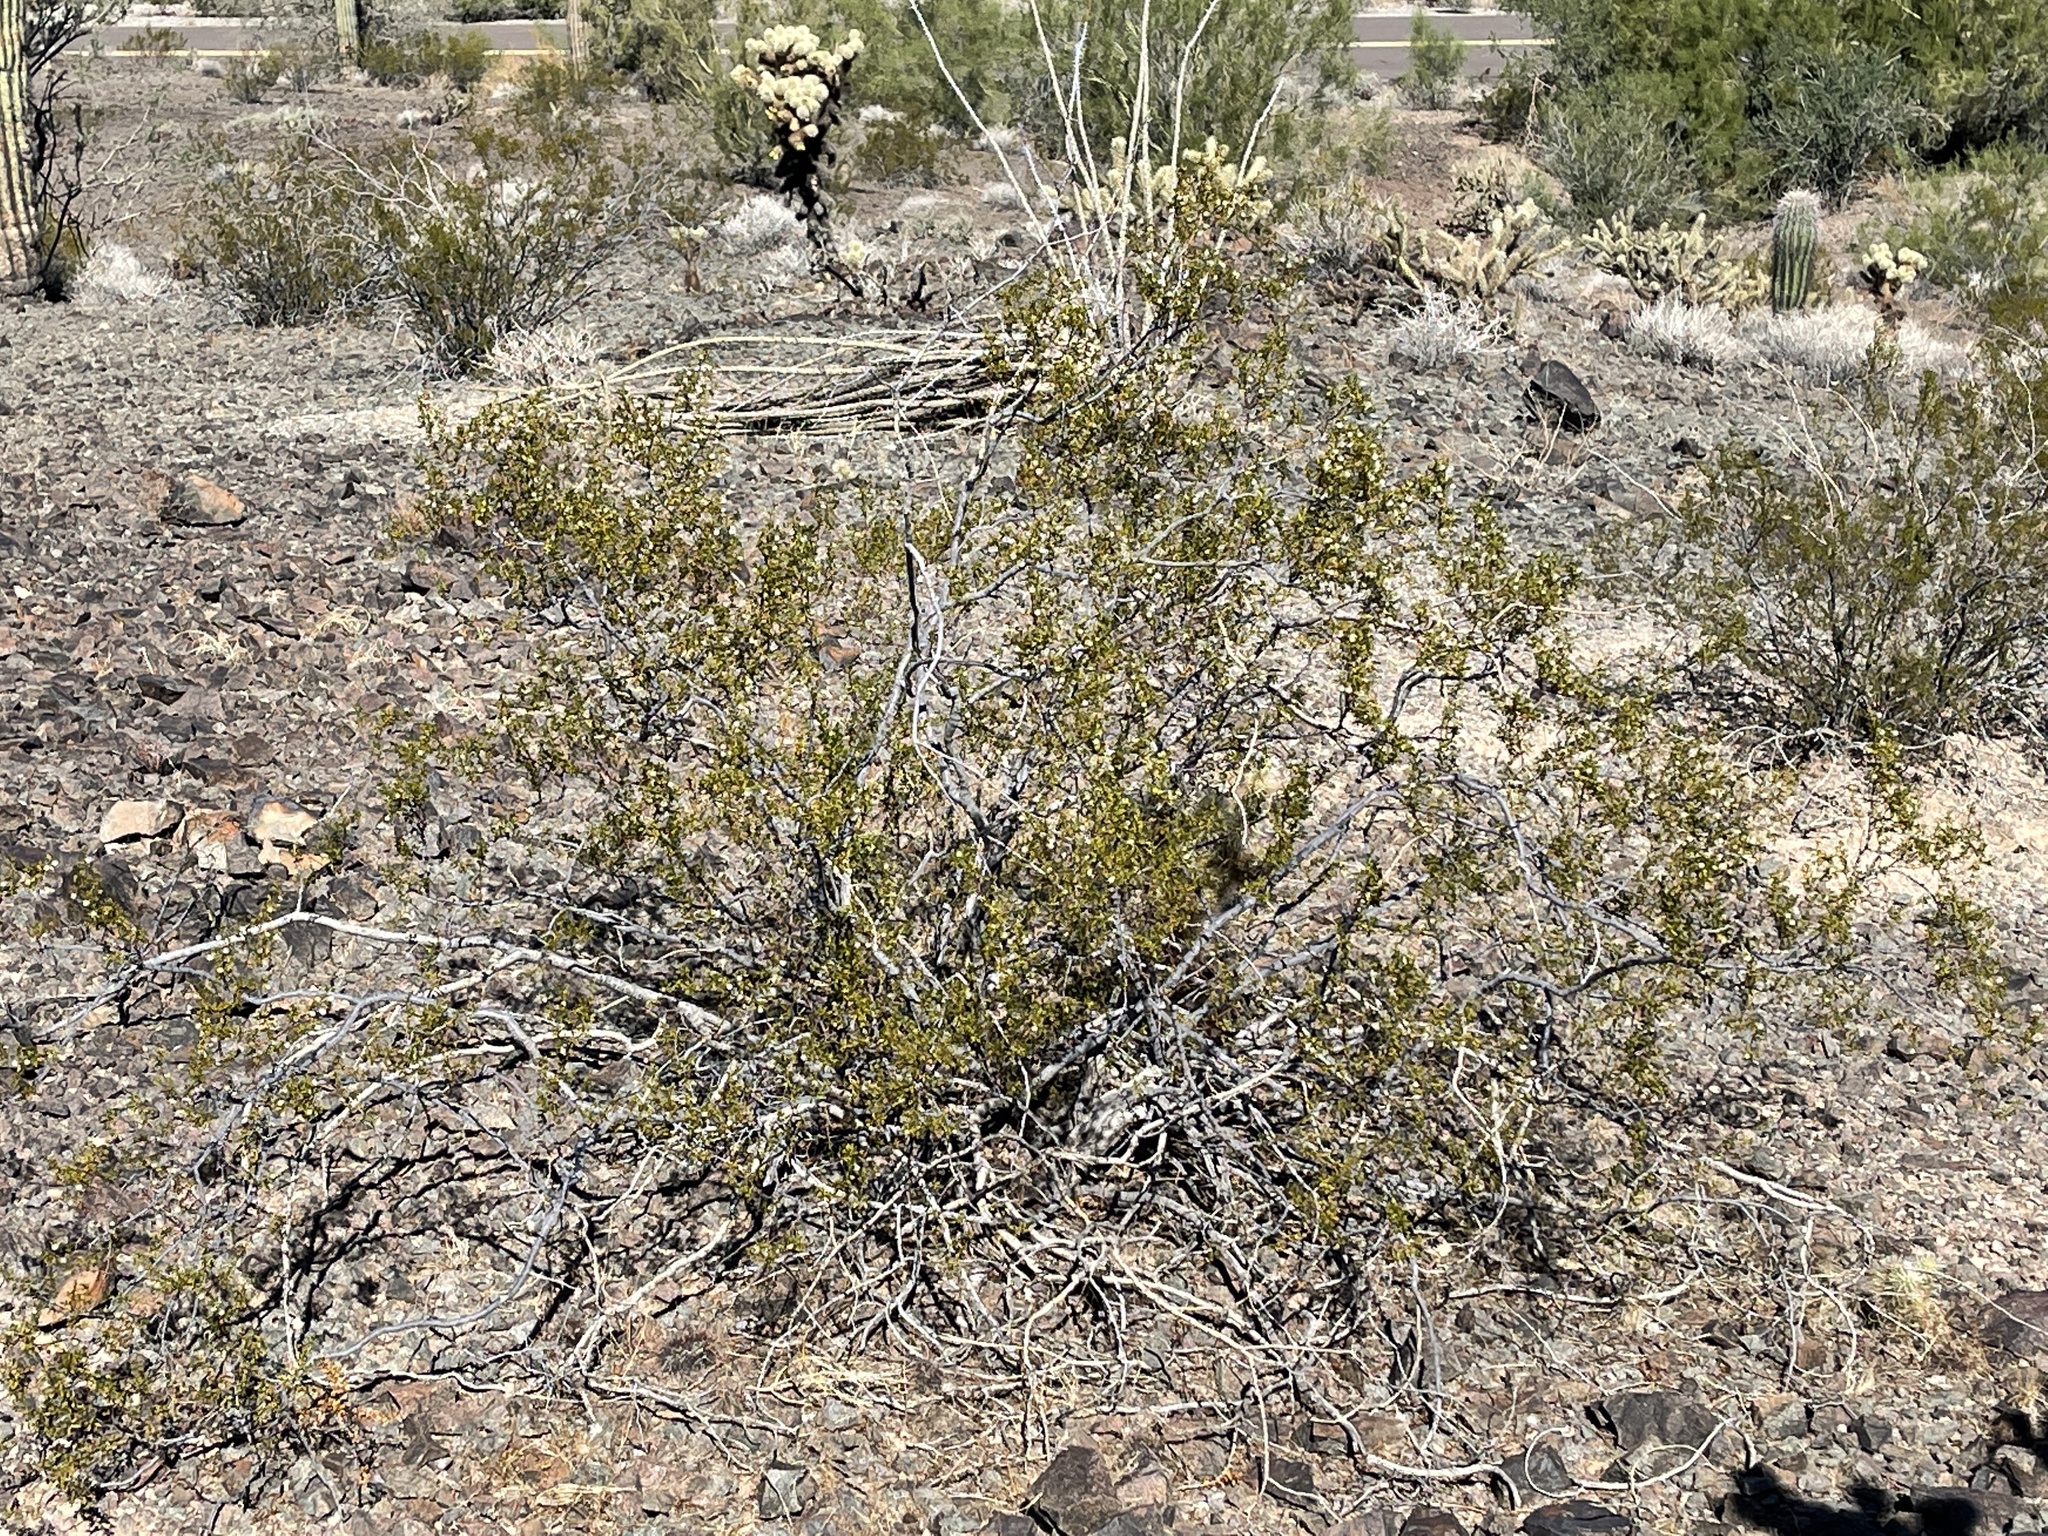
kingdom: Plantae
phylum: Tracheophyta
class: Magnoliopsida
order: Zygophyllales
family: Zygophyllaceae
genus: Larrea
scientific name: Larrea tridentata
